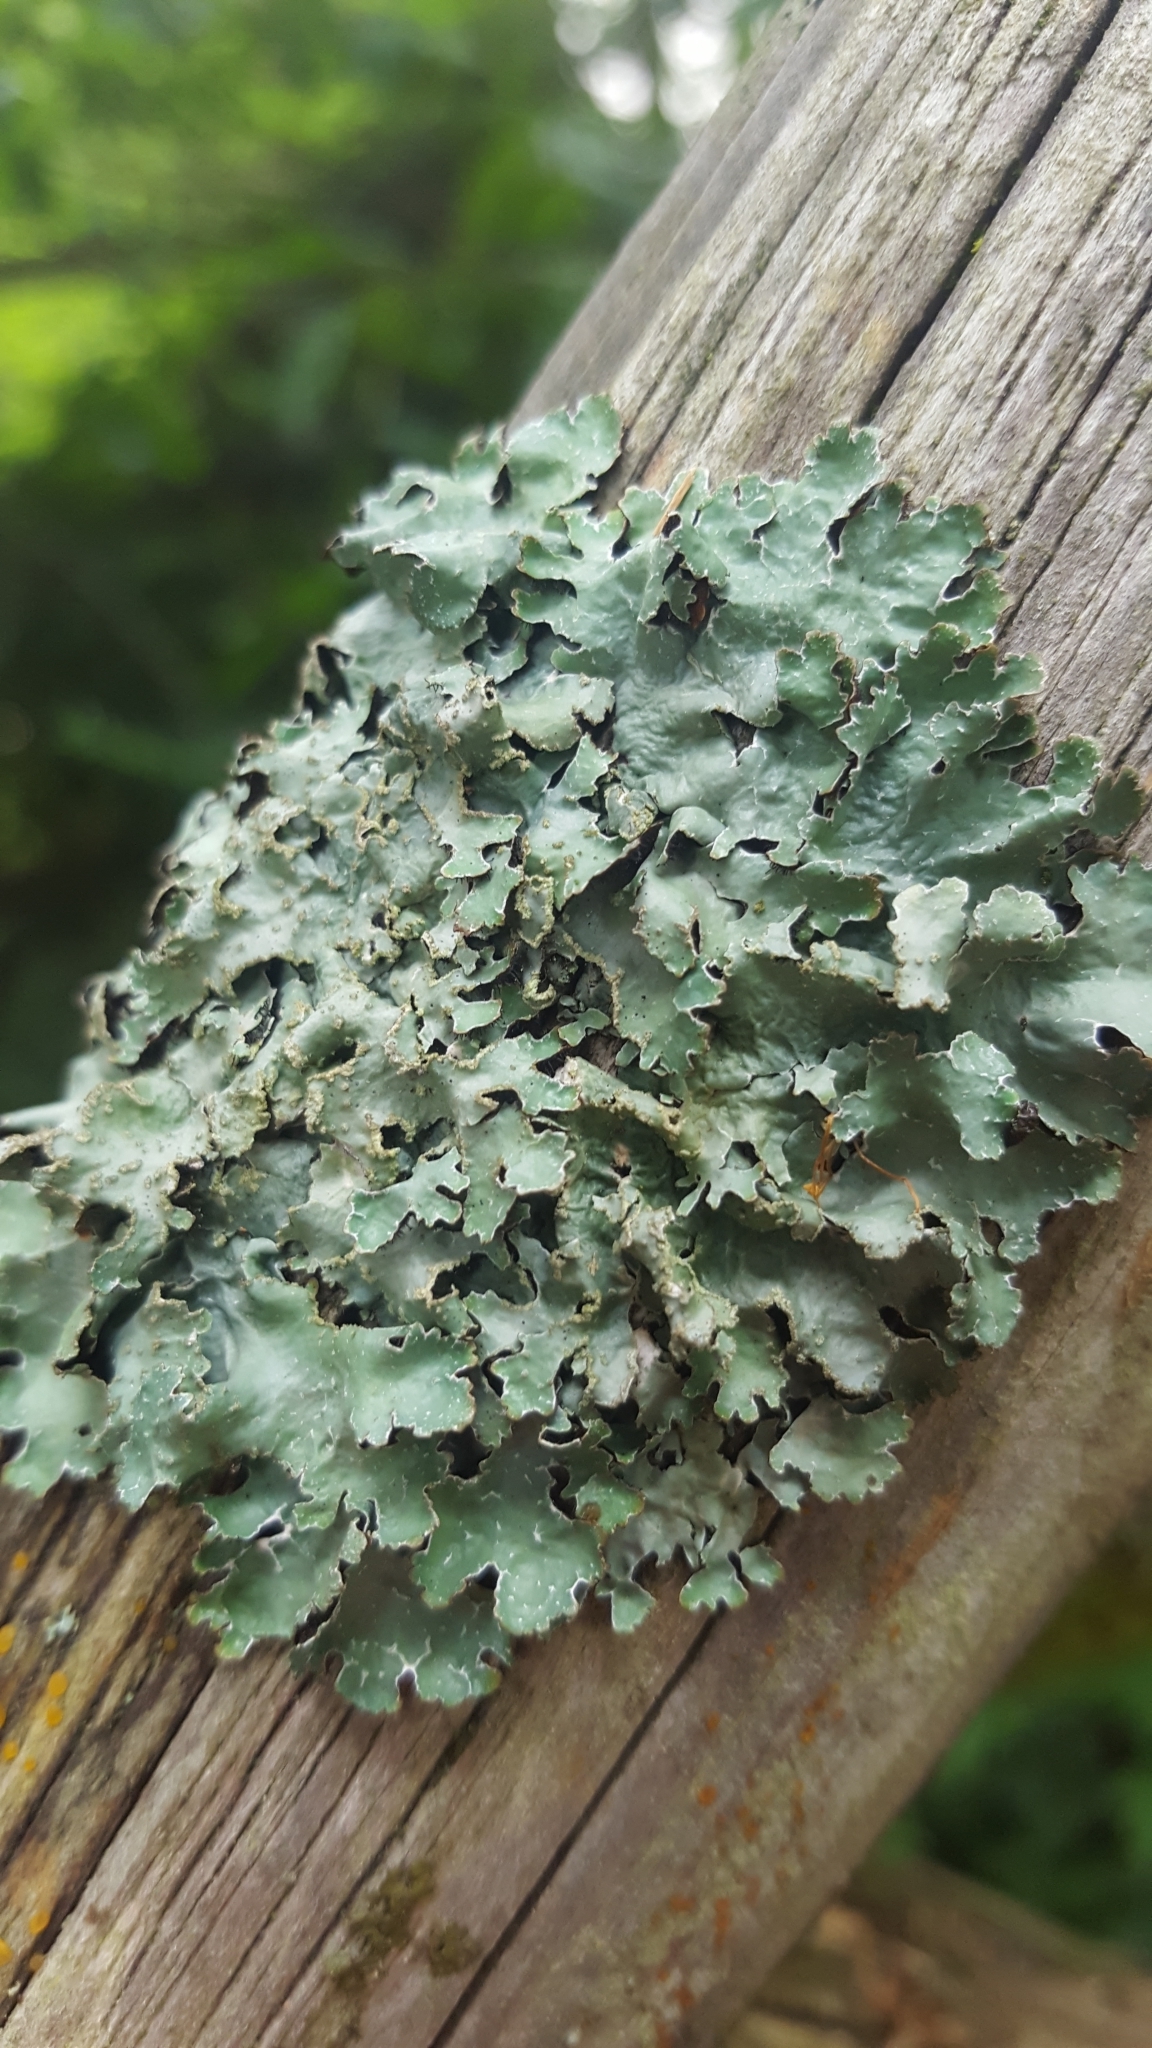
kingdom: Fungi
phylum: Ascomycota
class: Lecanoromycetes
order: Lecanorales
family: Parmeliaceae
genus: Parmelia
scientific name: Parmelia sulcata
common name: Netted shield lichen
